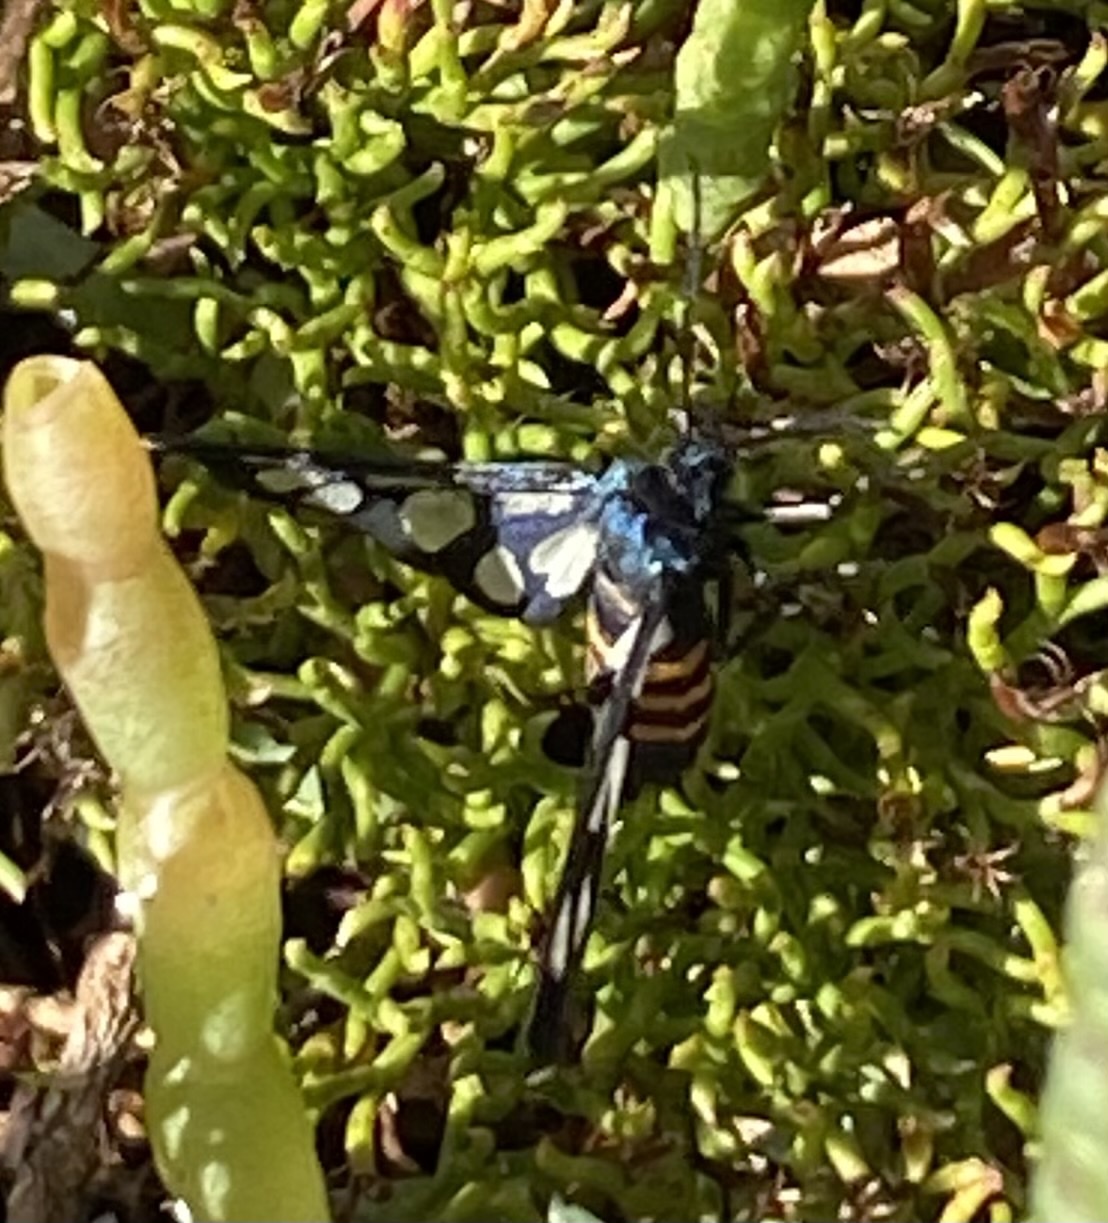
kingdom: Animalia
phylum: Arthropoda
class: Insecta
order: Lepidoptera
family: Erebidae
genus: Amata
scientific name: Amata johanna
